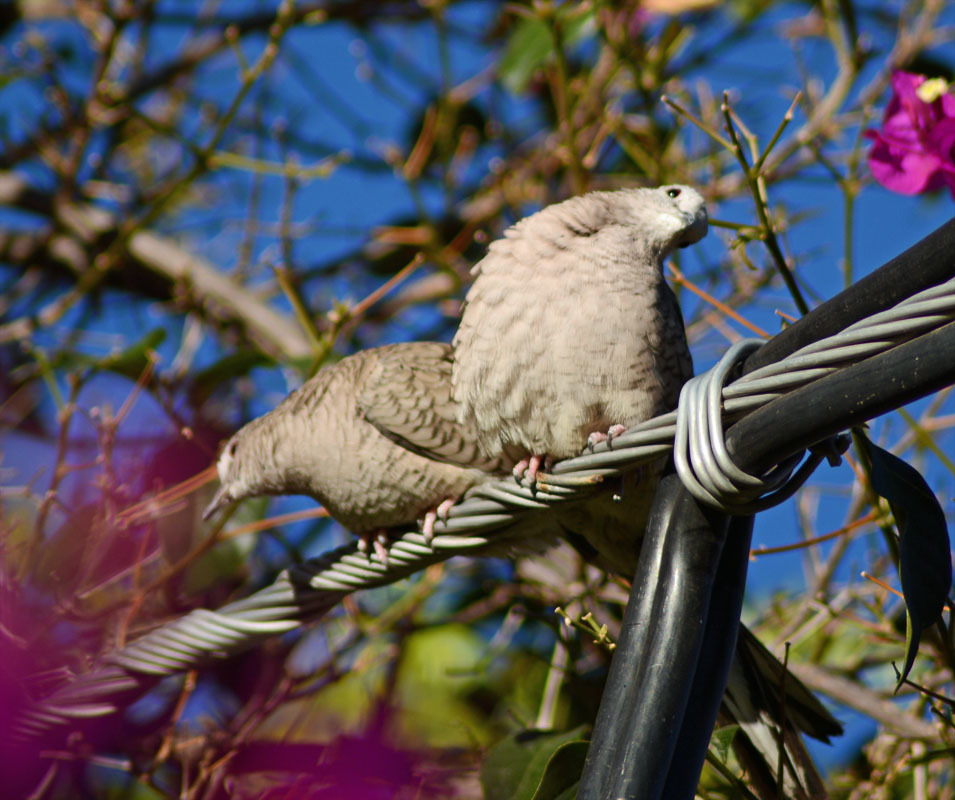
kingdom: Animalia
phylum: Chordata
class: Aves
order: Columbiformes
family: Columbidae
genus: Columbina
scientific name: Columbina inca
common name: Inca dove
